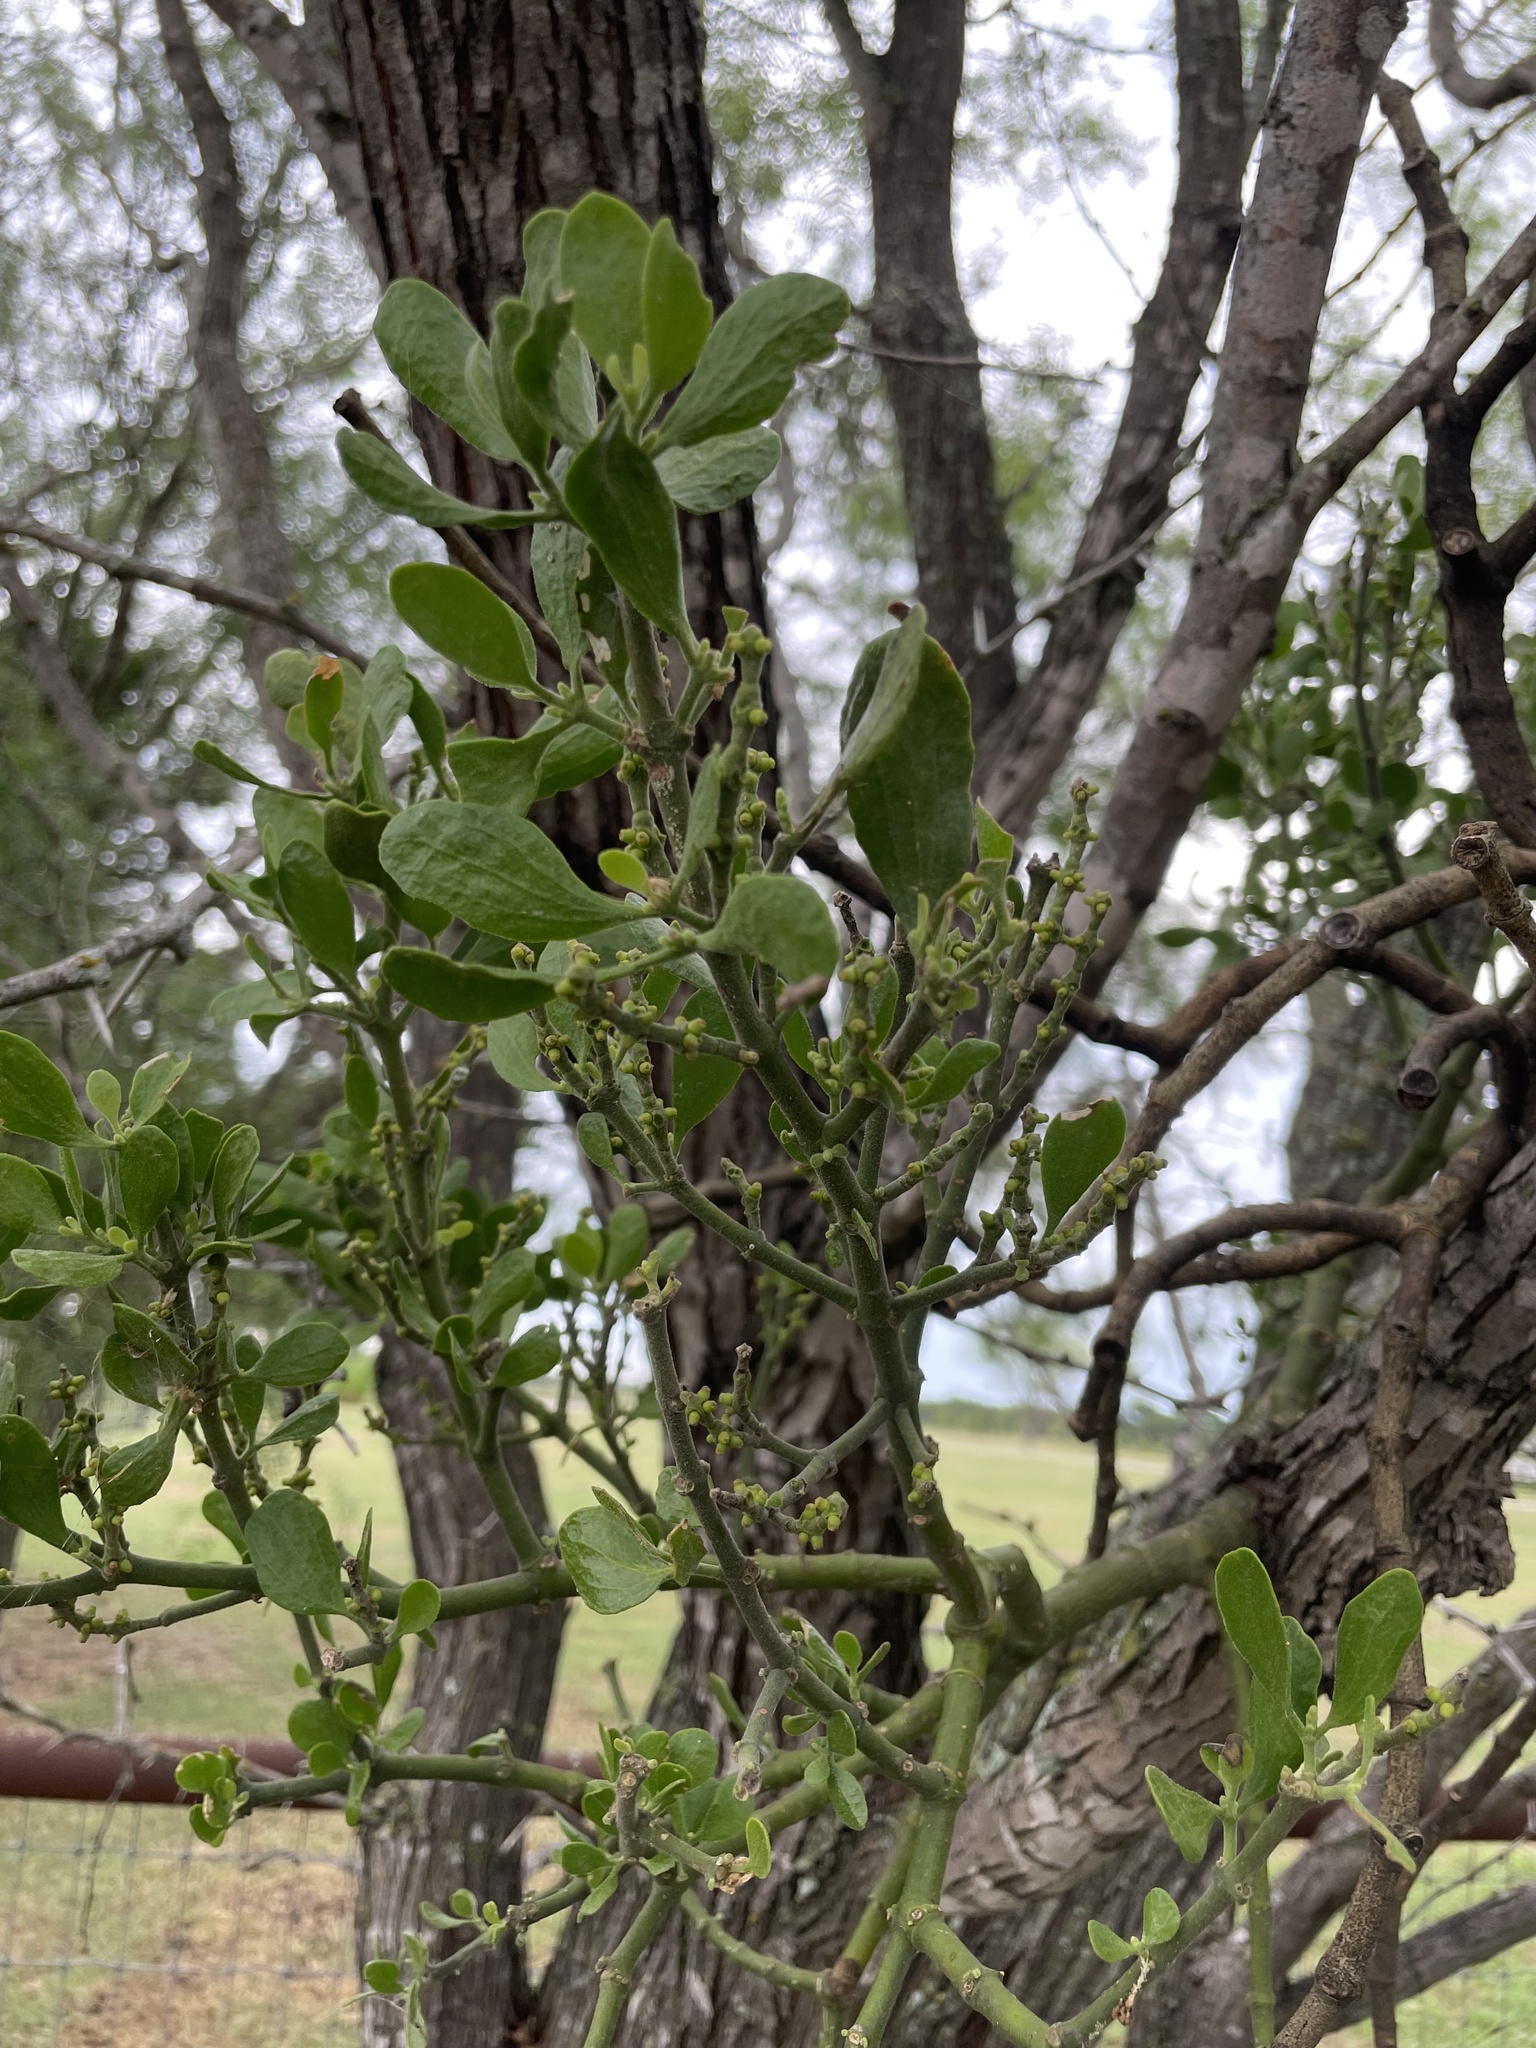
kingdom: Plantae
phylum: Tracheophyta
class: Magnoliopsida
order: Santalales
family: Viscaceae
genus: Phoradendron
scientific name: Phoradendron leucarpum
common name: Pacific mistletoe
